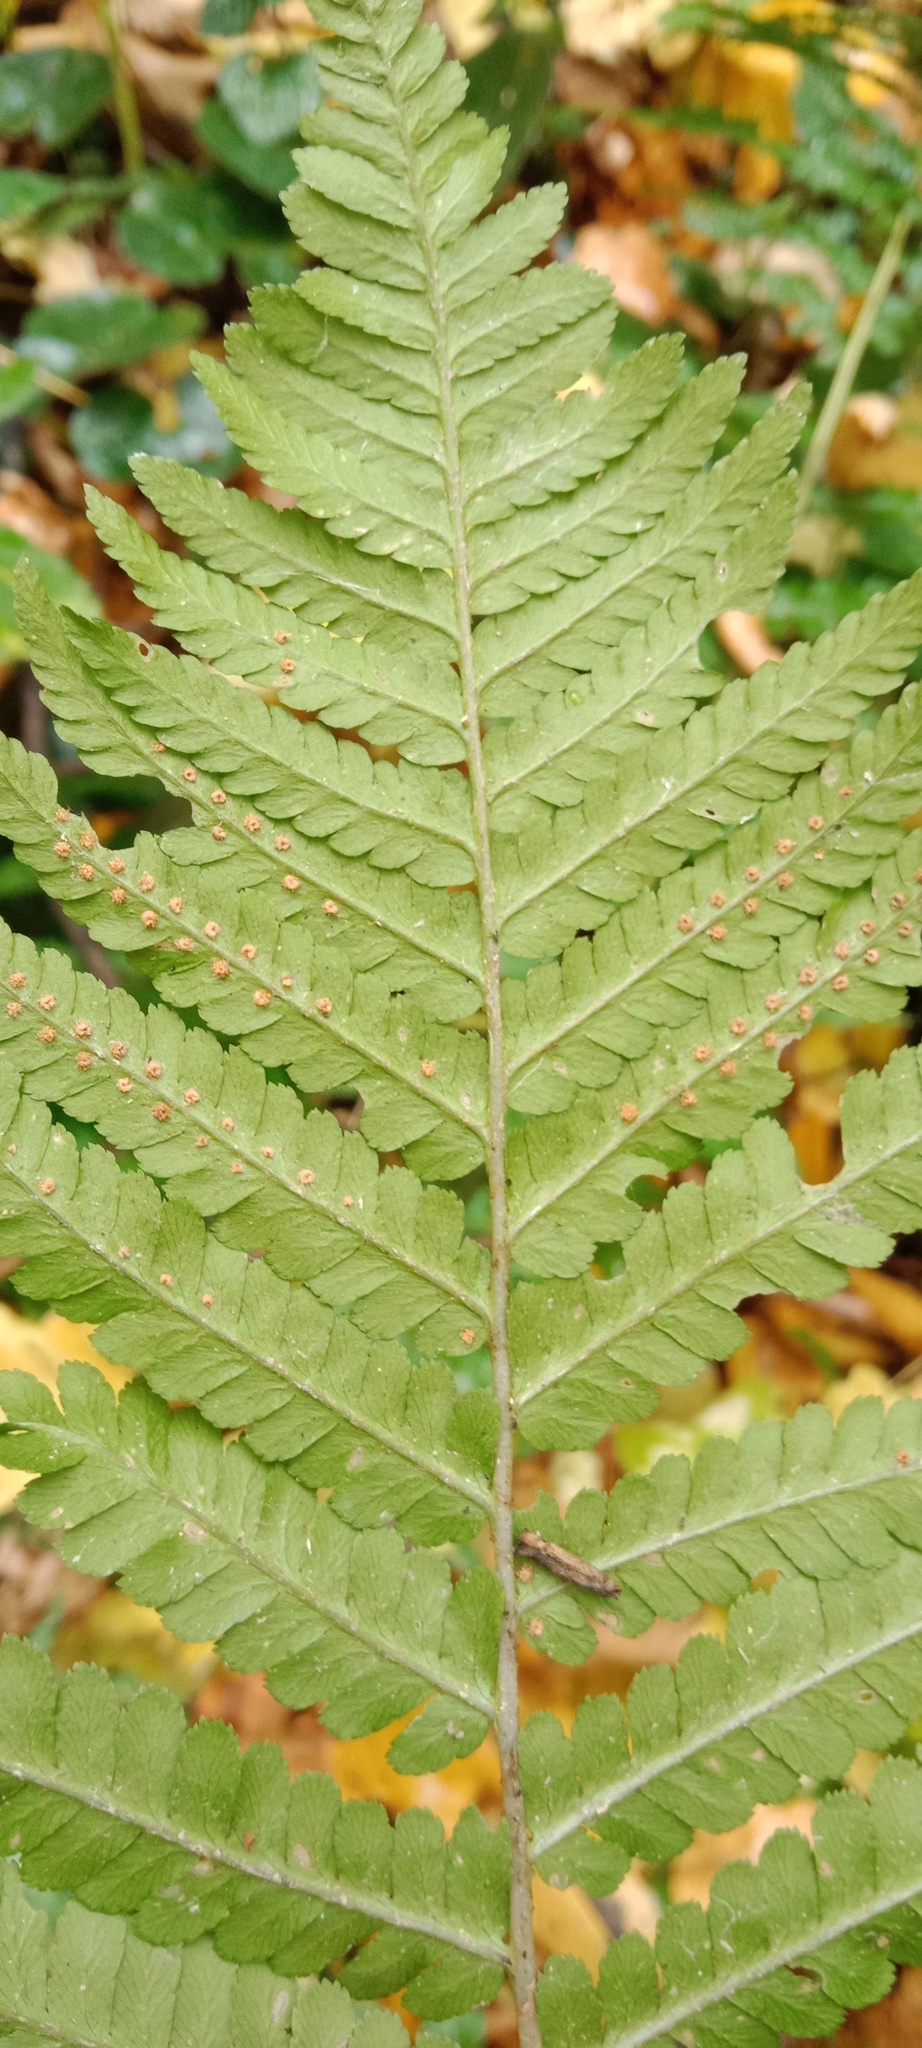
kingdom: Plantae
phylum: Tracheophyta
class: Polypodiopsida
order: Polypodiales
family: Dryopteridaceae
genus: Dryopteris
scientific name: Dryopteris filix-mas
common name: Male fern
